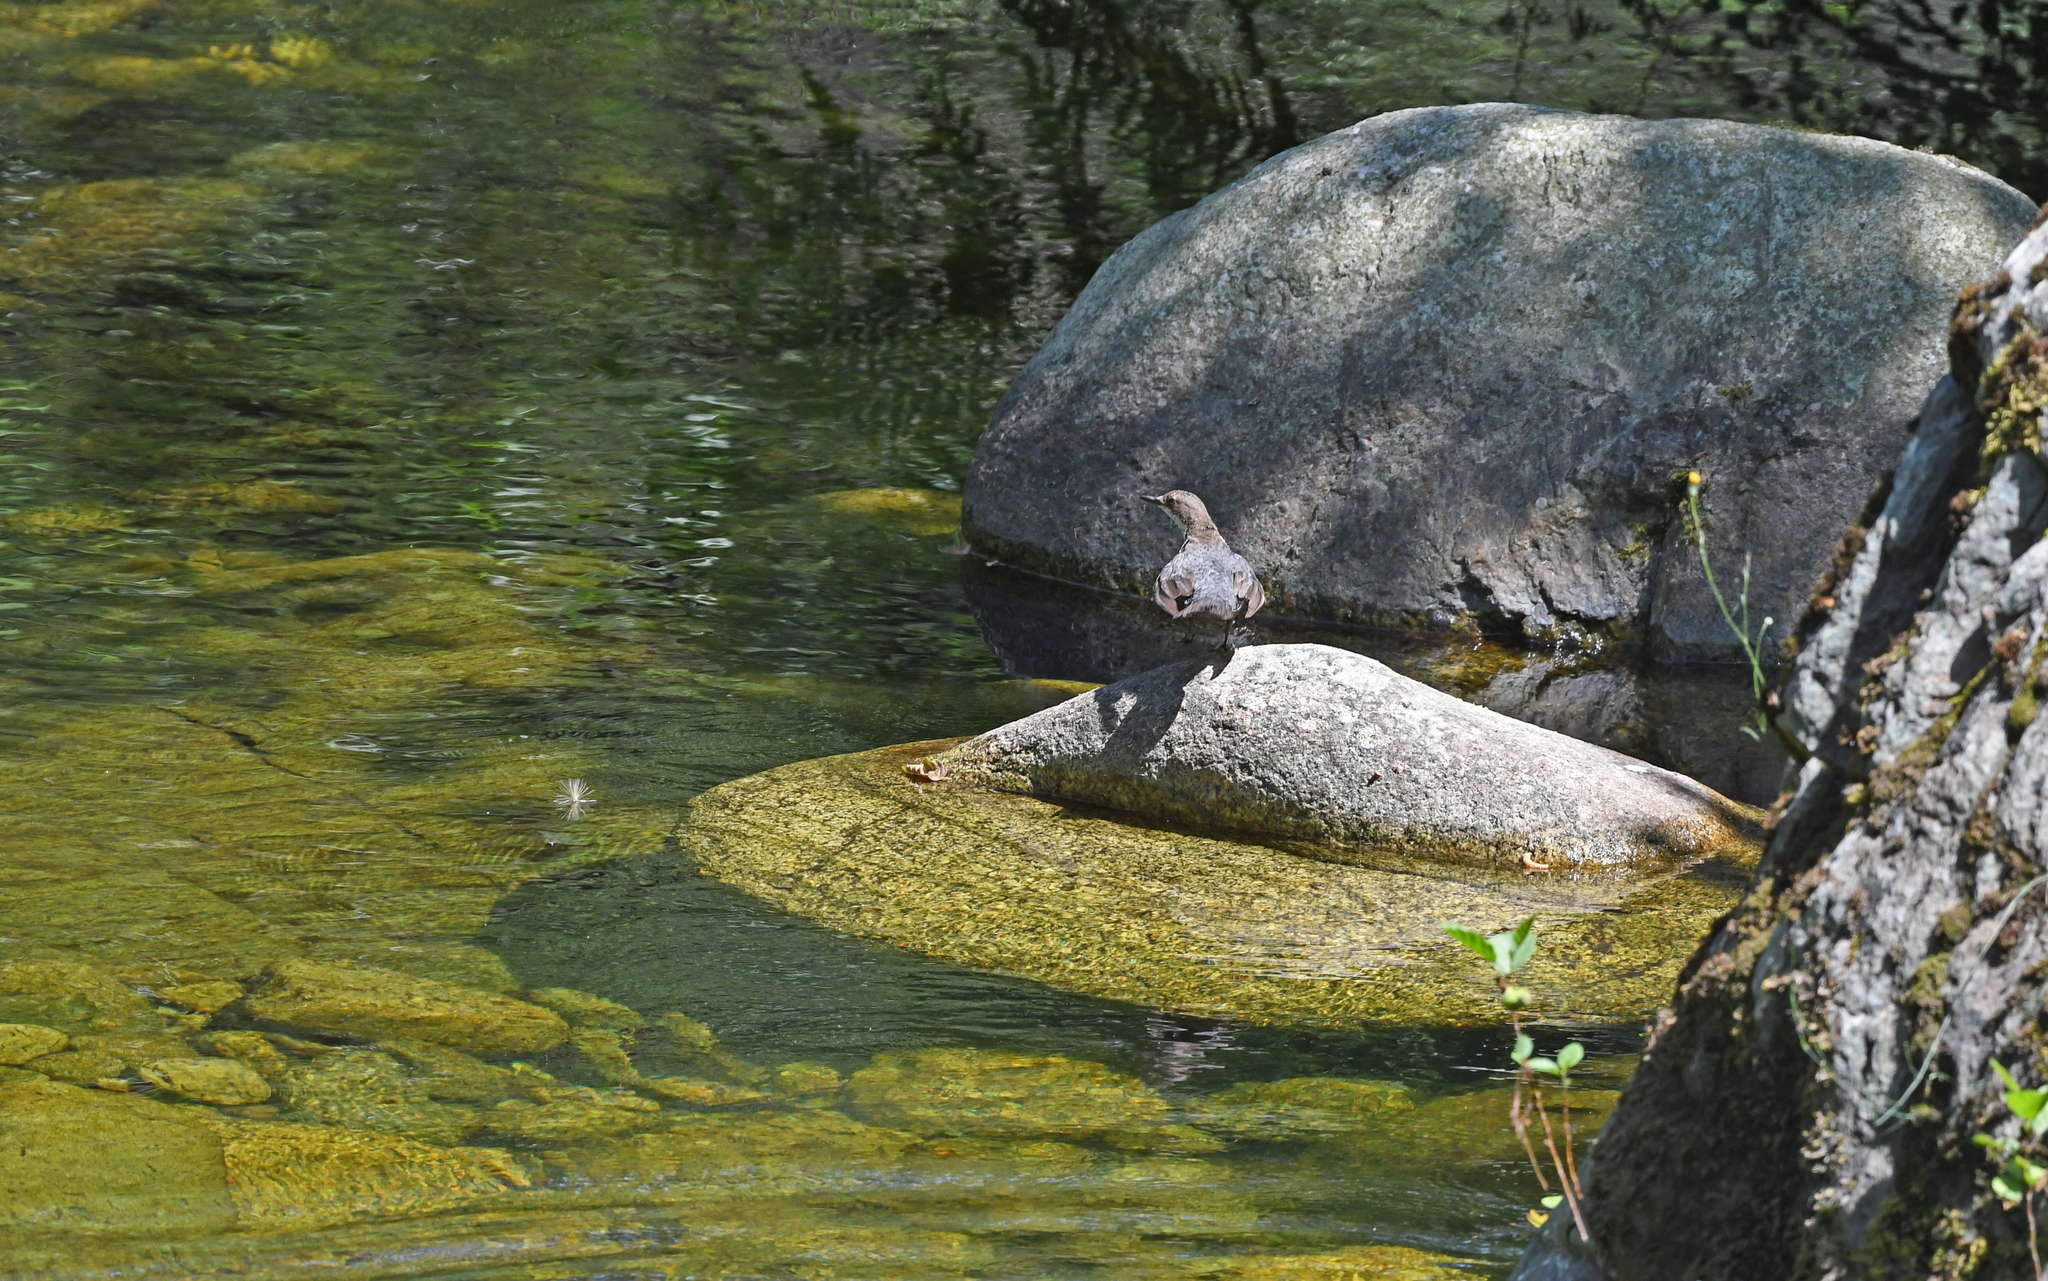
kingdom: Animalia
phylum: Chordata
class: Aves
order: Passeriformes
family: Cinclidae
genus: Cinclus
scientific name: Cinclus cinclus
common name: White-throated dipper
